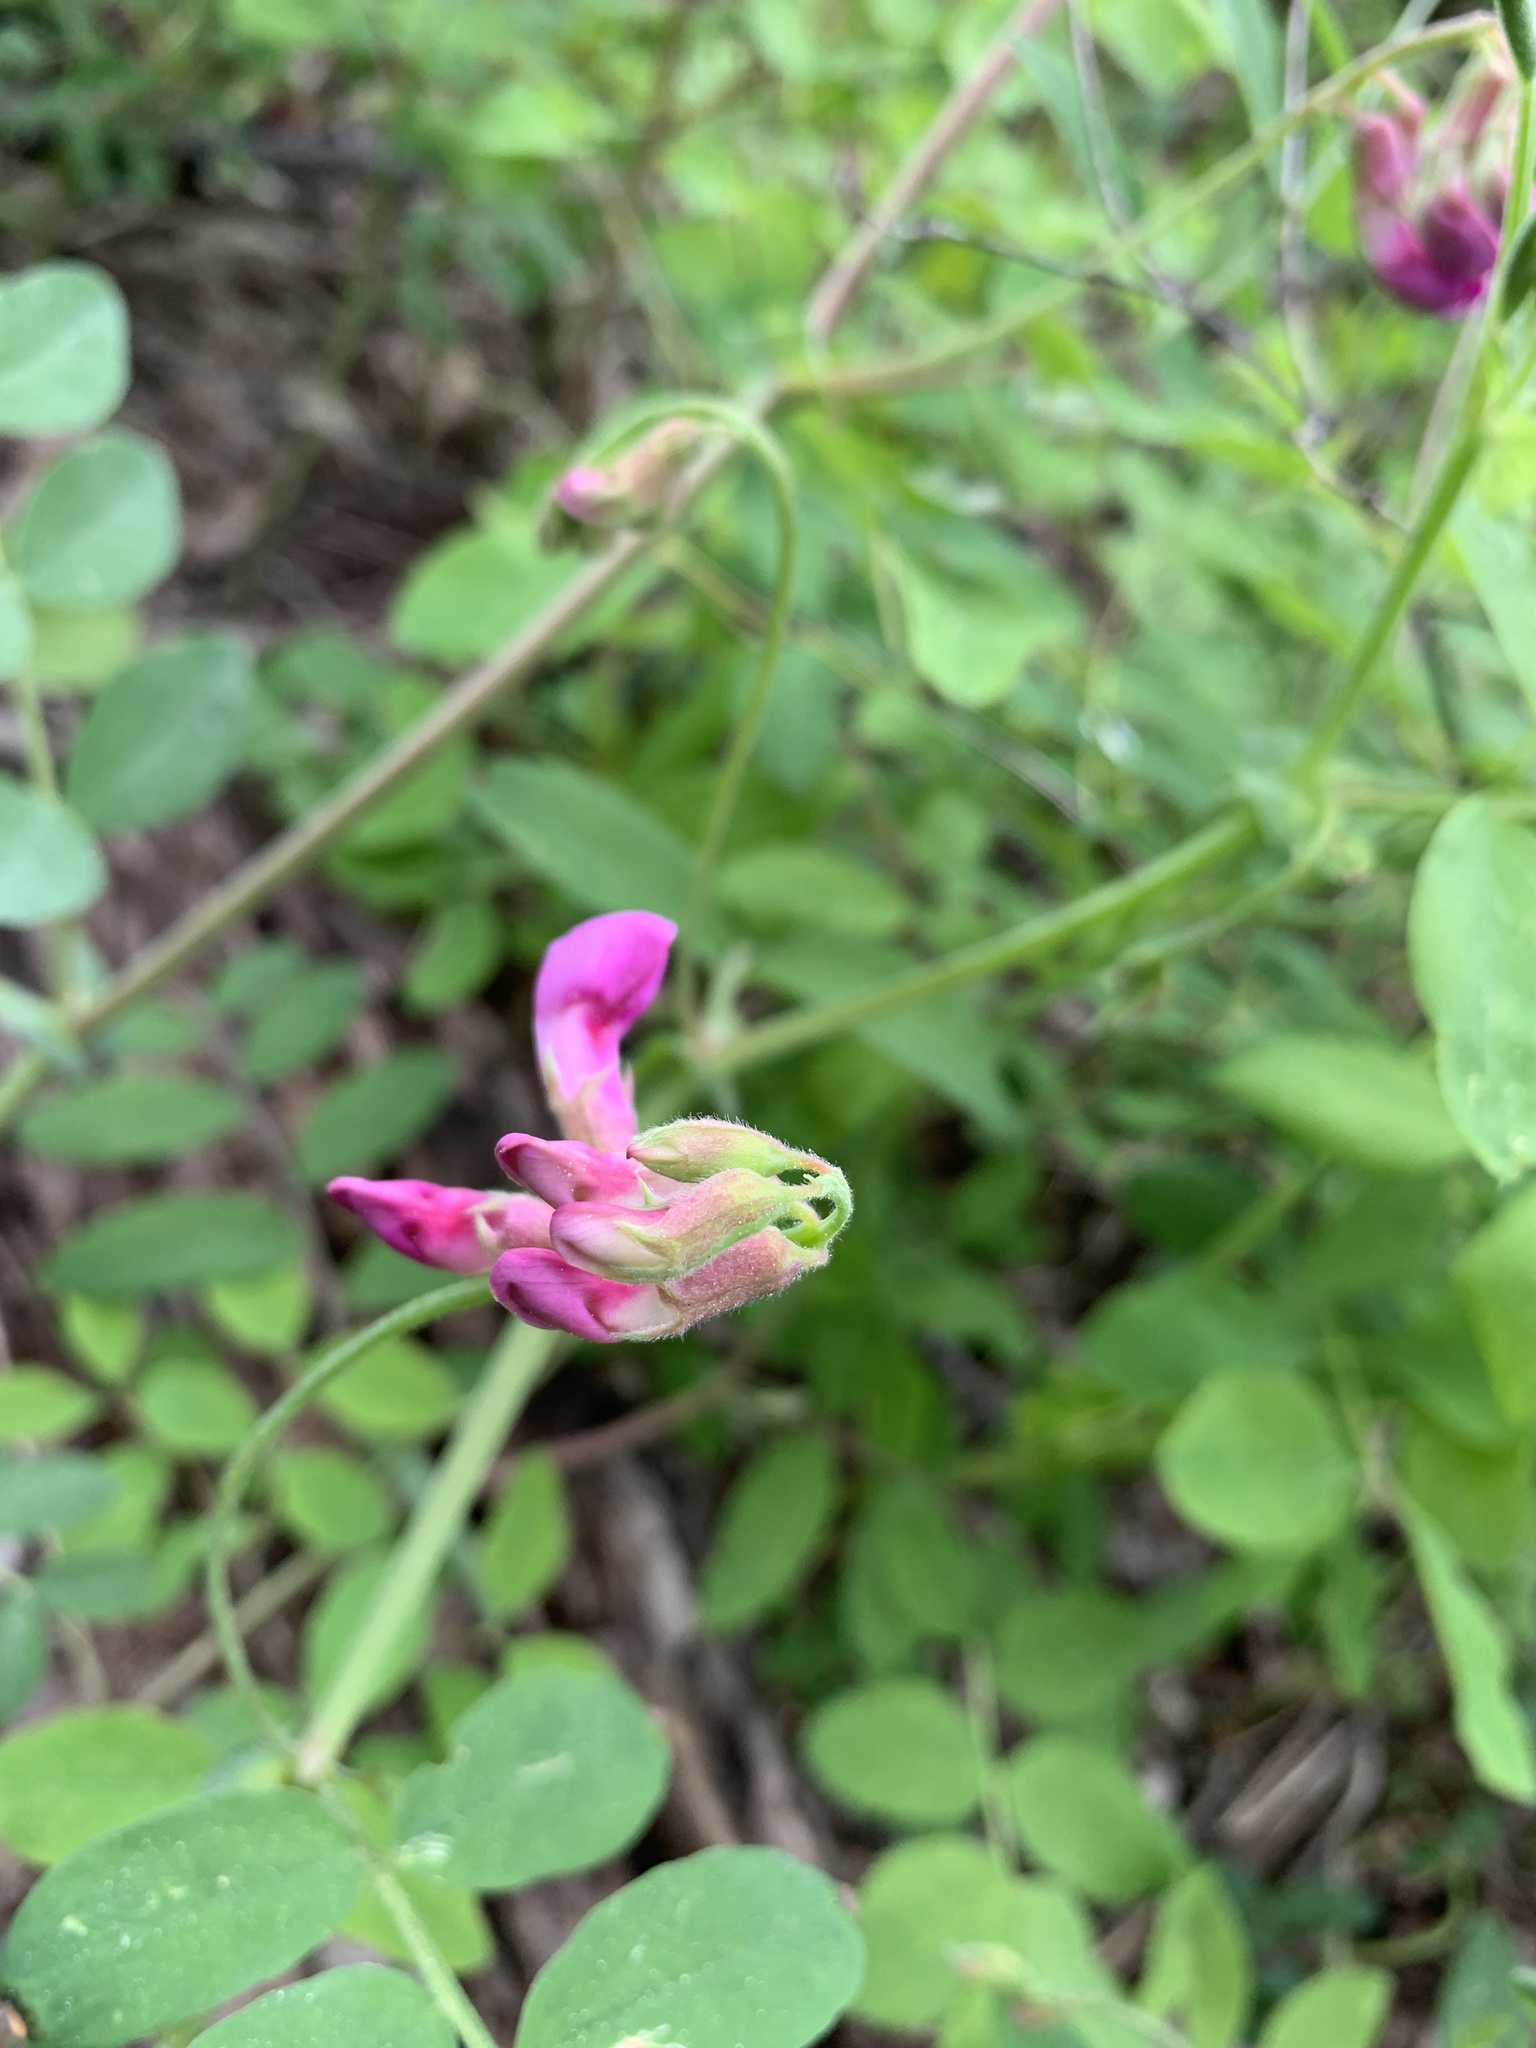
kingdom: Plantae
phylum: Tracheophyta
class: Magnoliopsida
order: Fabales
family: Fabaceae
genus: Vicia
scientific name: Vicia americana
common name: American vetch
